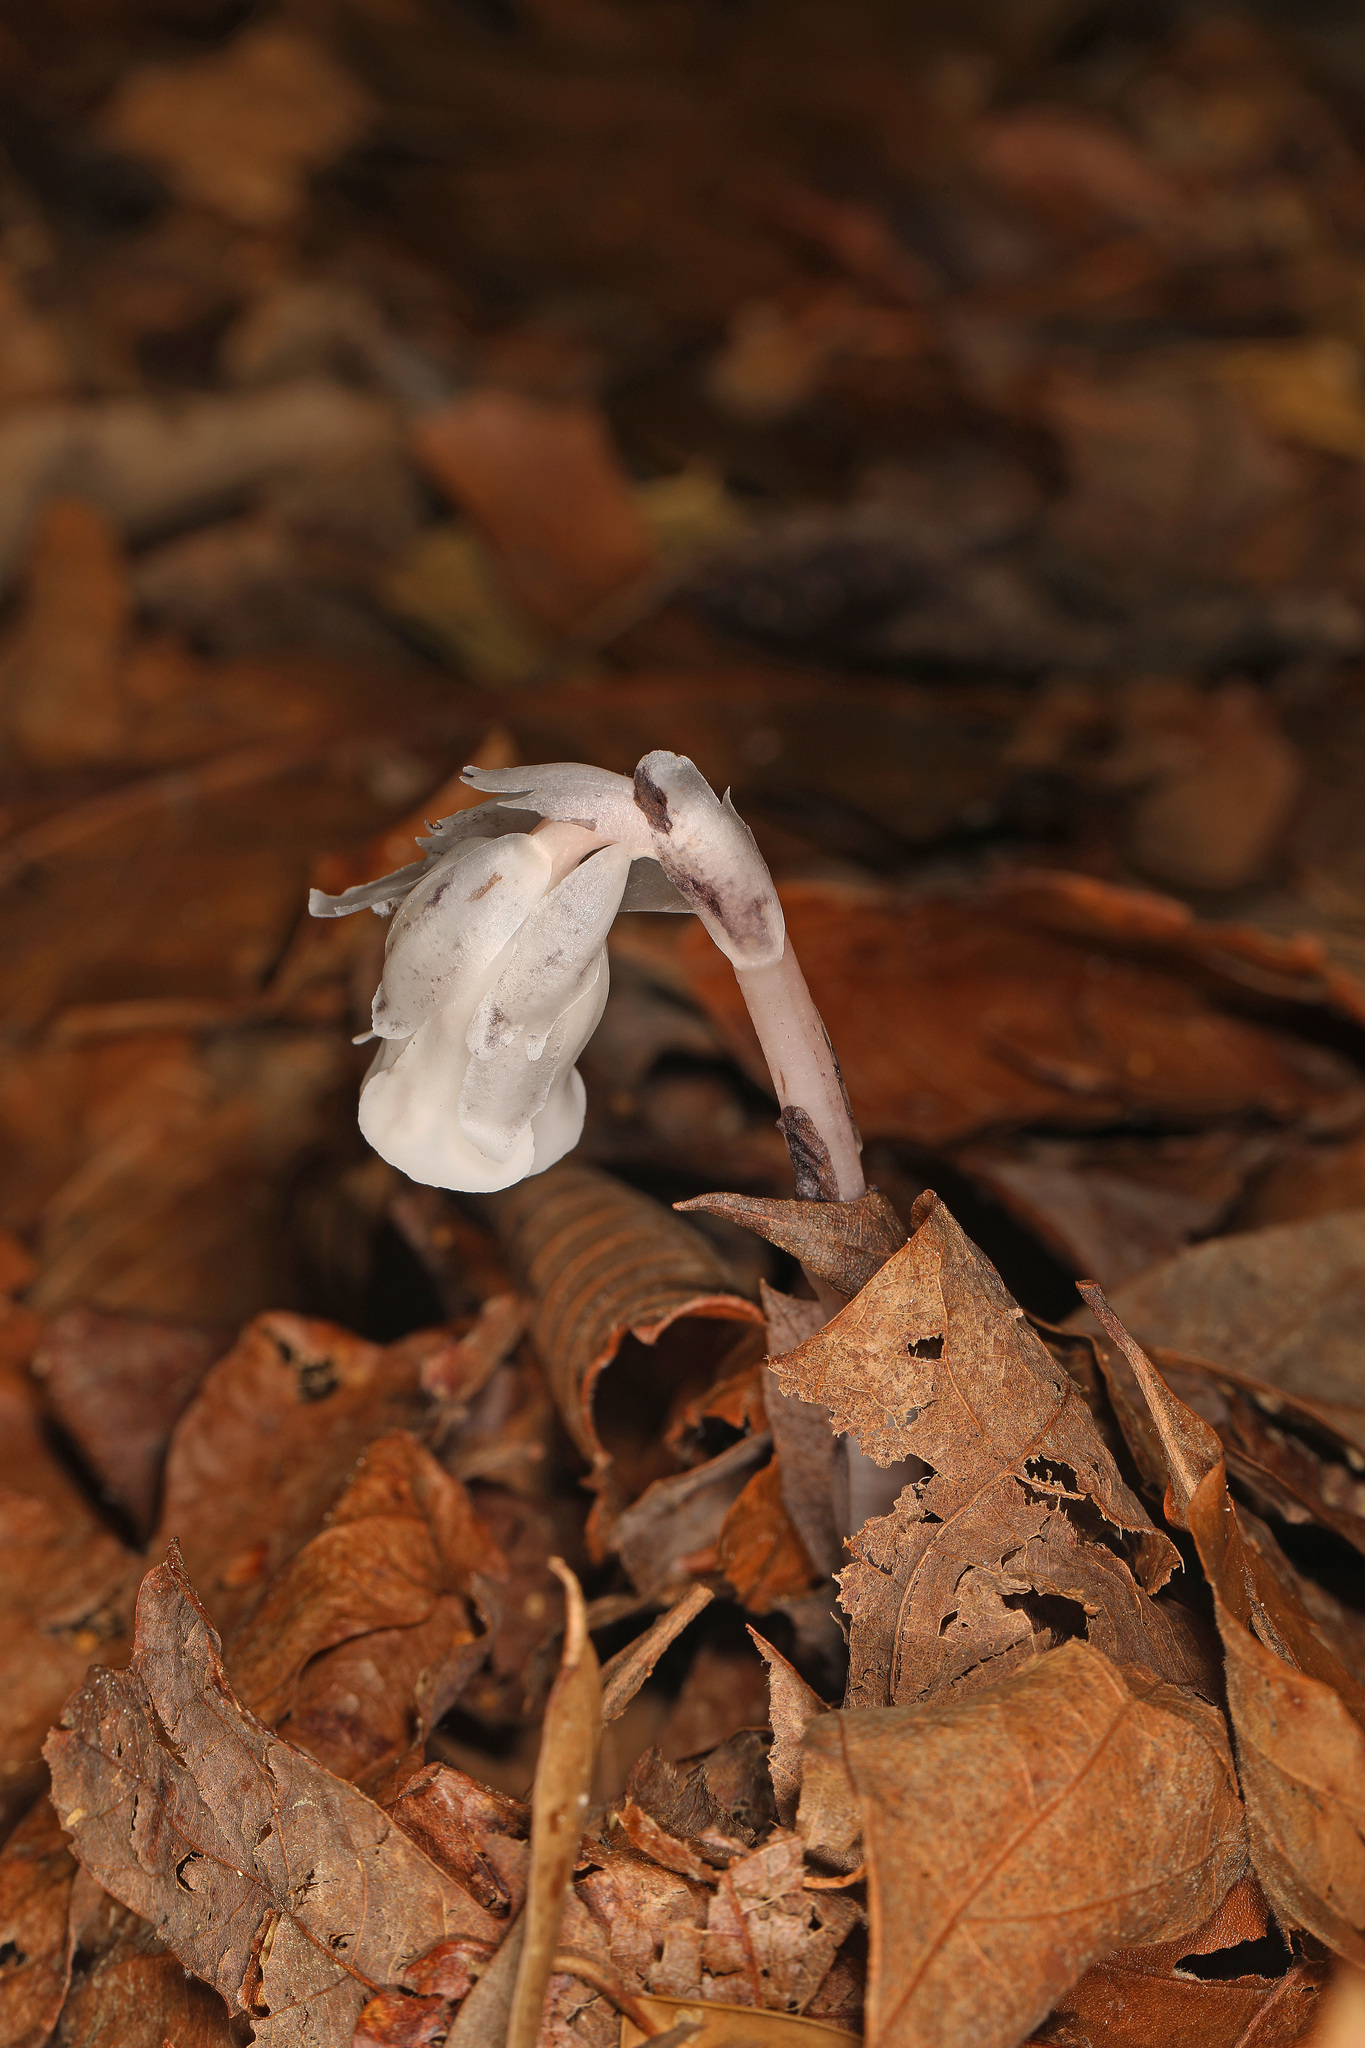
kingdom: Plantae
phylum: Tracheophyta
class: Magnoliopsida
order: Ericales
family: Ericaceae
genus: Monotropa
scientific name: Monotropa uniflora
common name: Convulsion root
